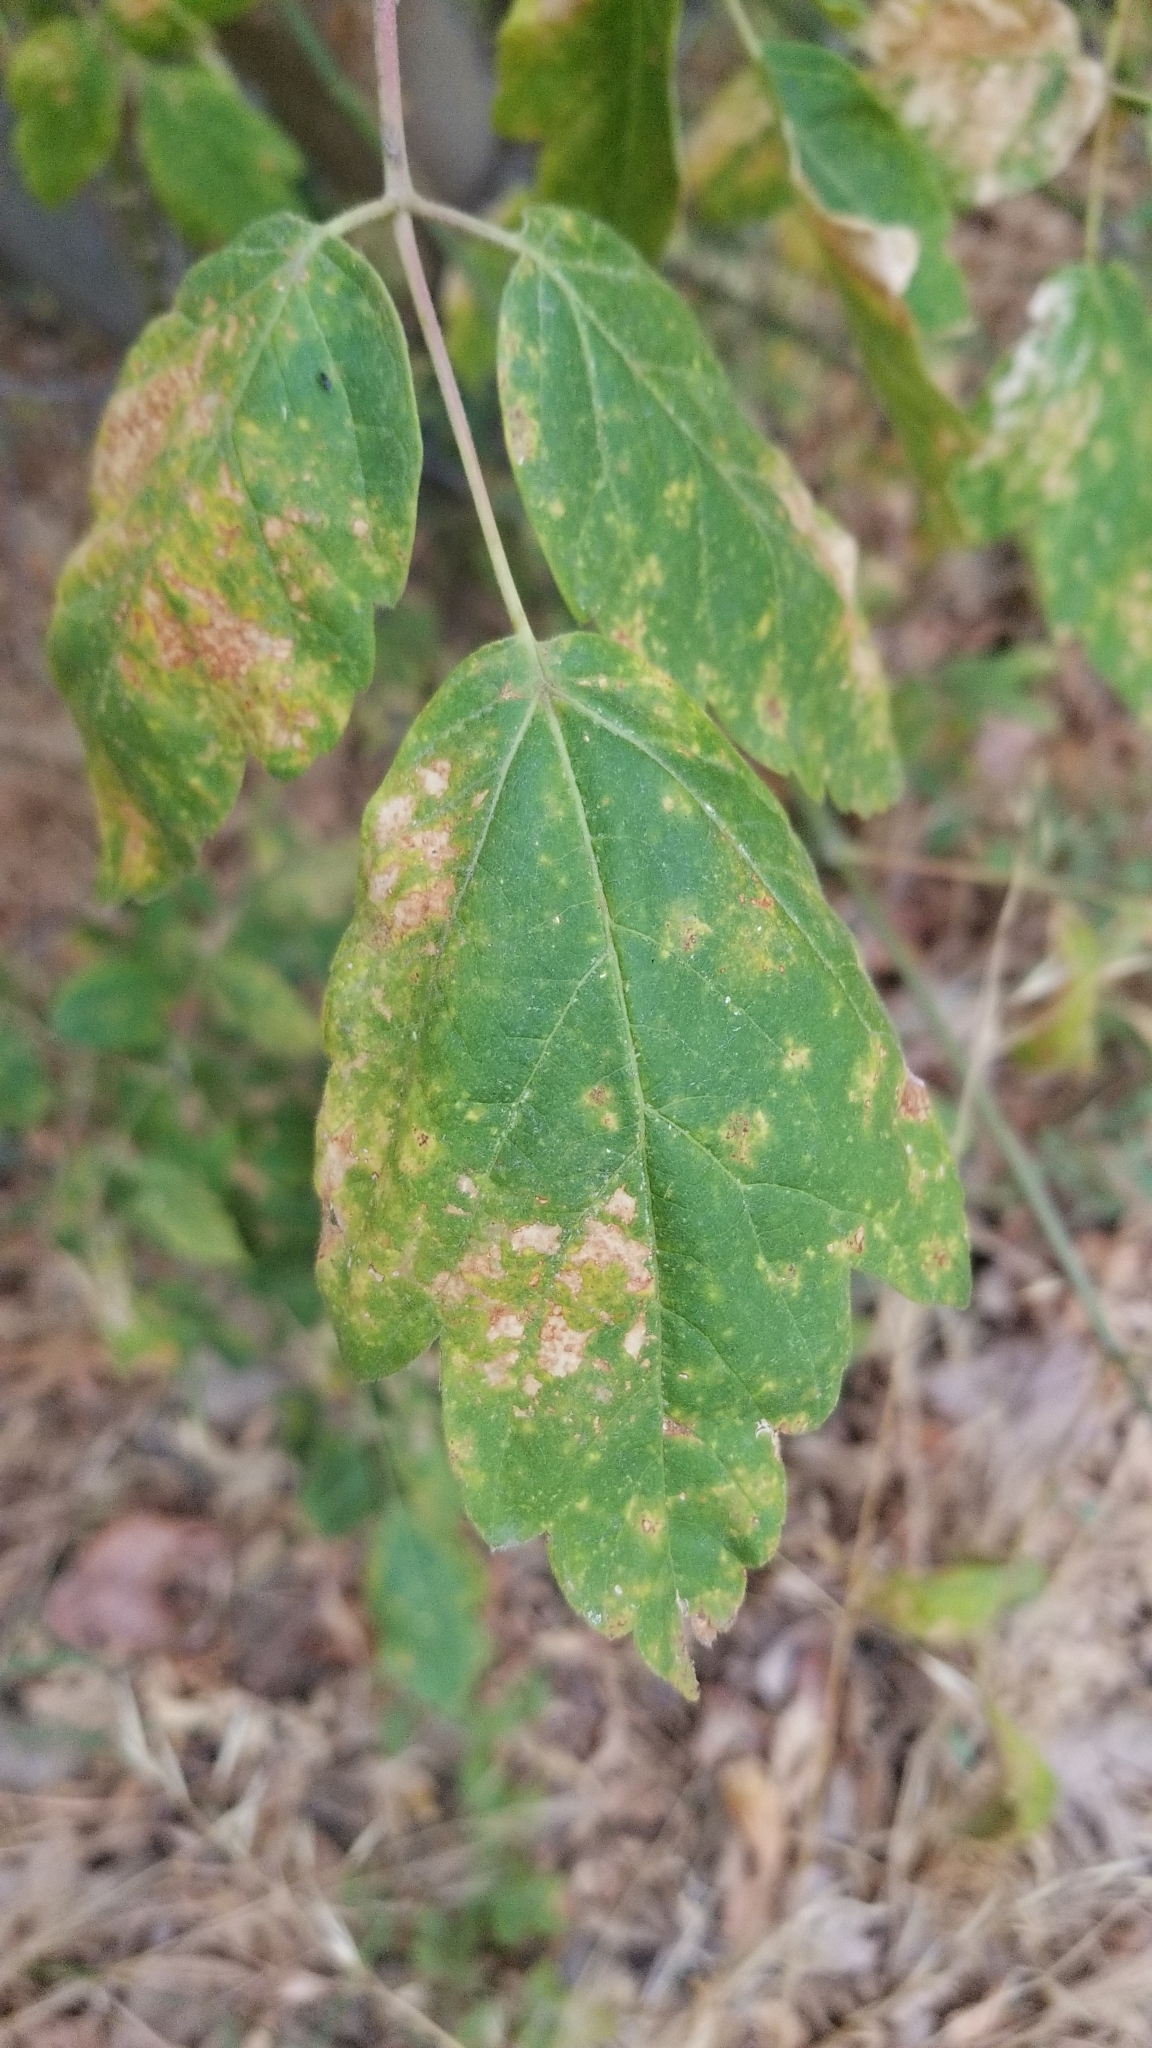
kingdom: Plantae
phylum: Tracheophyta
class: Magnoliopsida
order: Sapindales
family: Sapindaceae
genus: Acer
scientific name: Acer negundo
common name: Ashleaf maple
